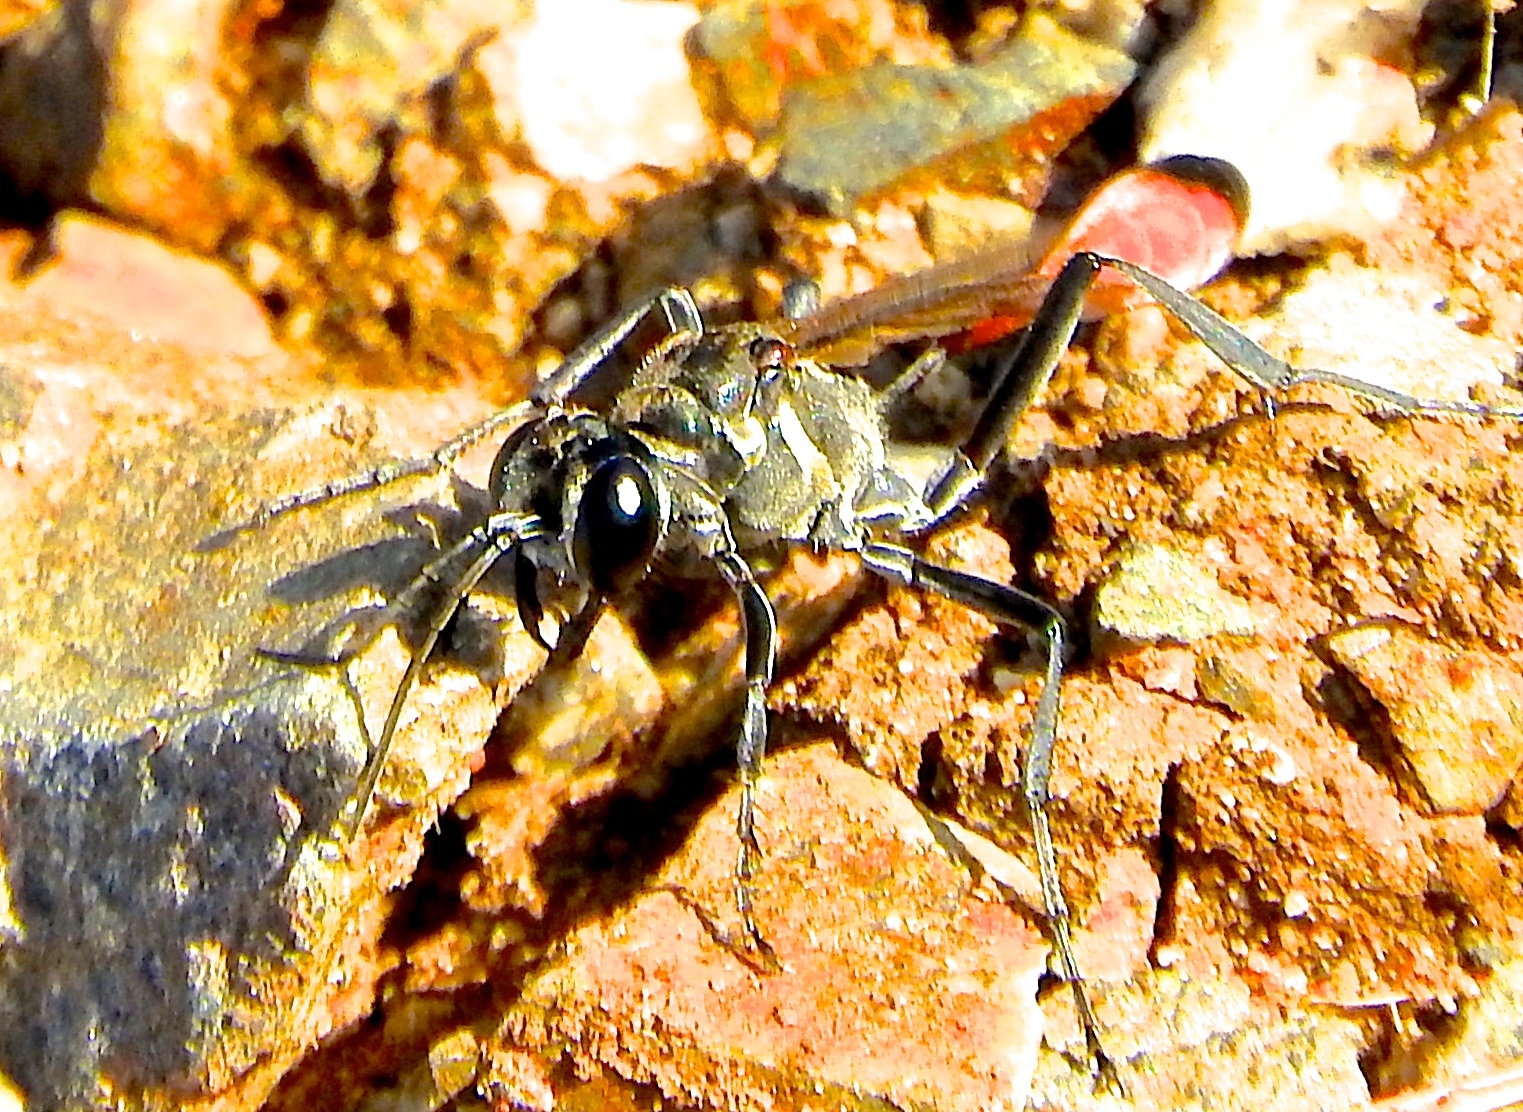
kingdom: Animalia
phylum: Arthropoda
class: Insecta
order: Hymenoptera
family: Sphecidae
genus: Ammophila
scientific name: Ammophila
